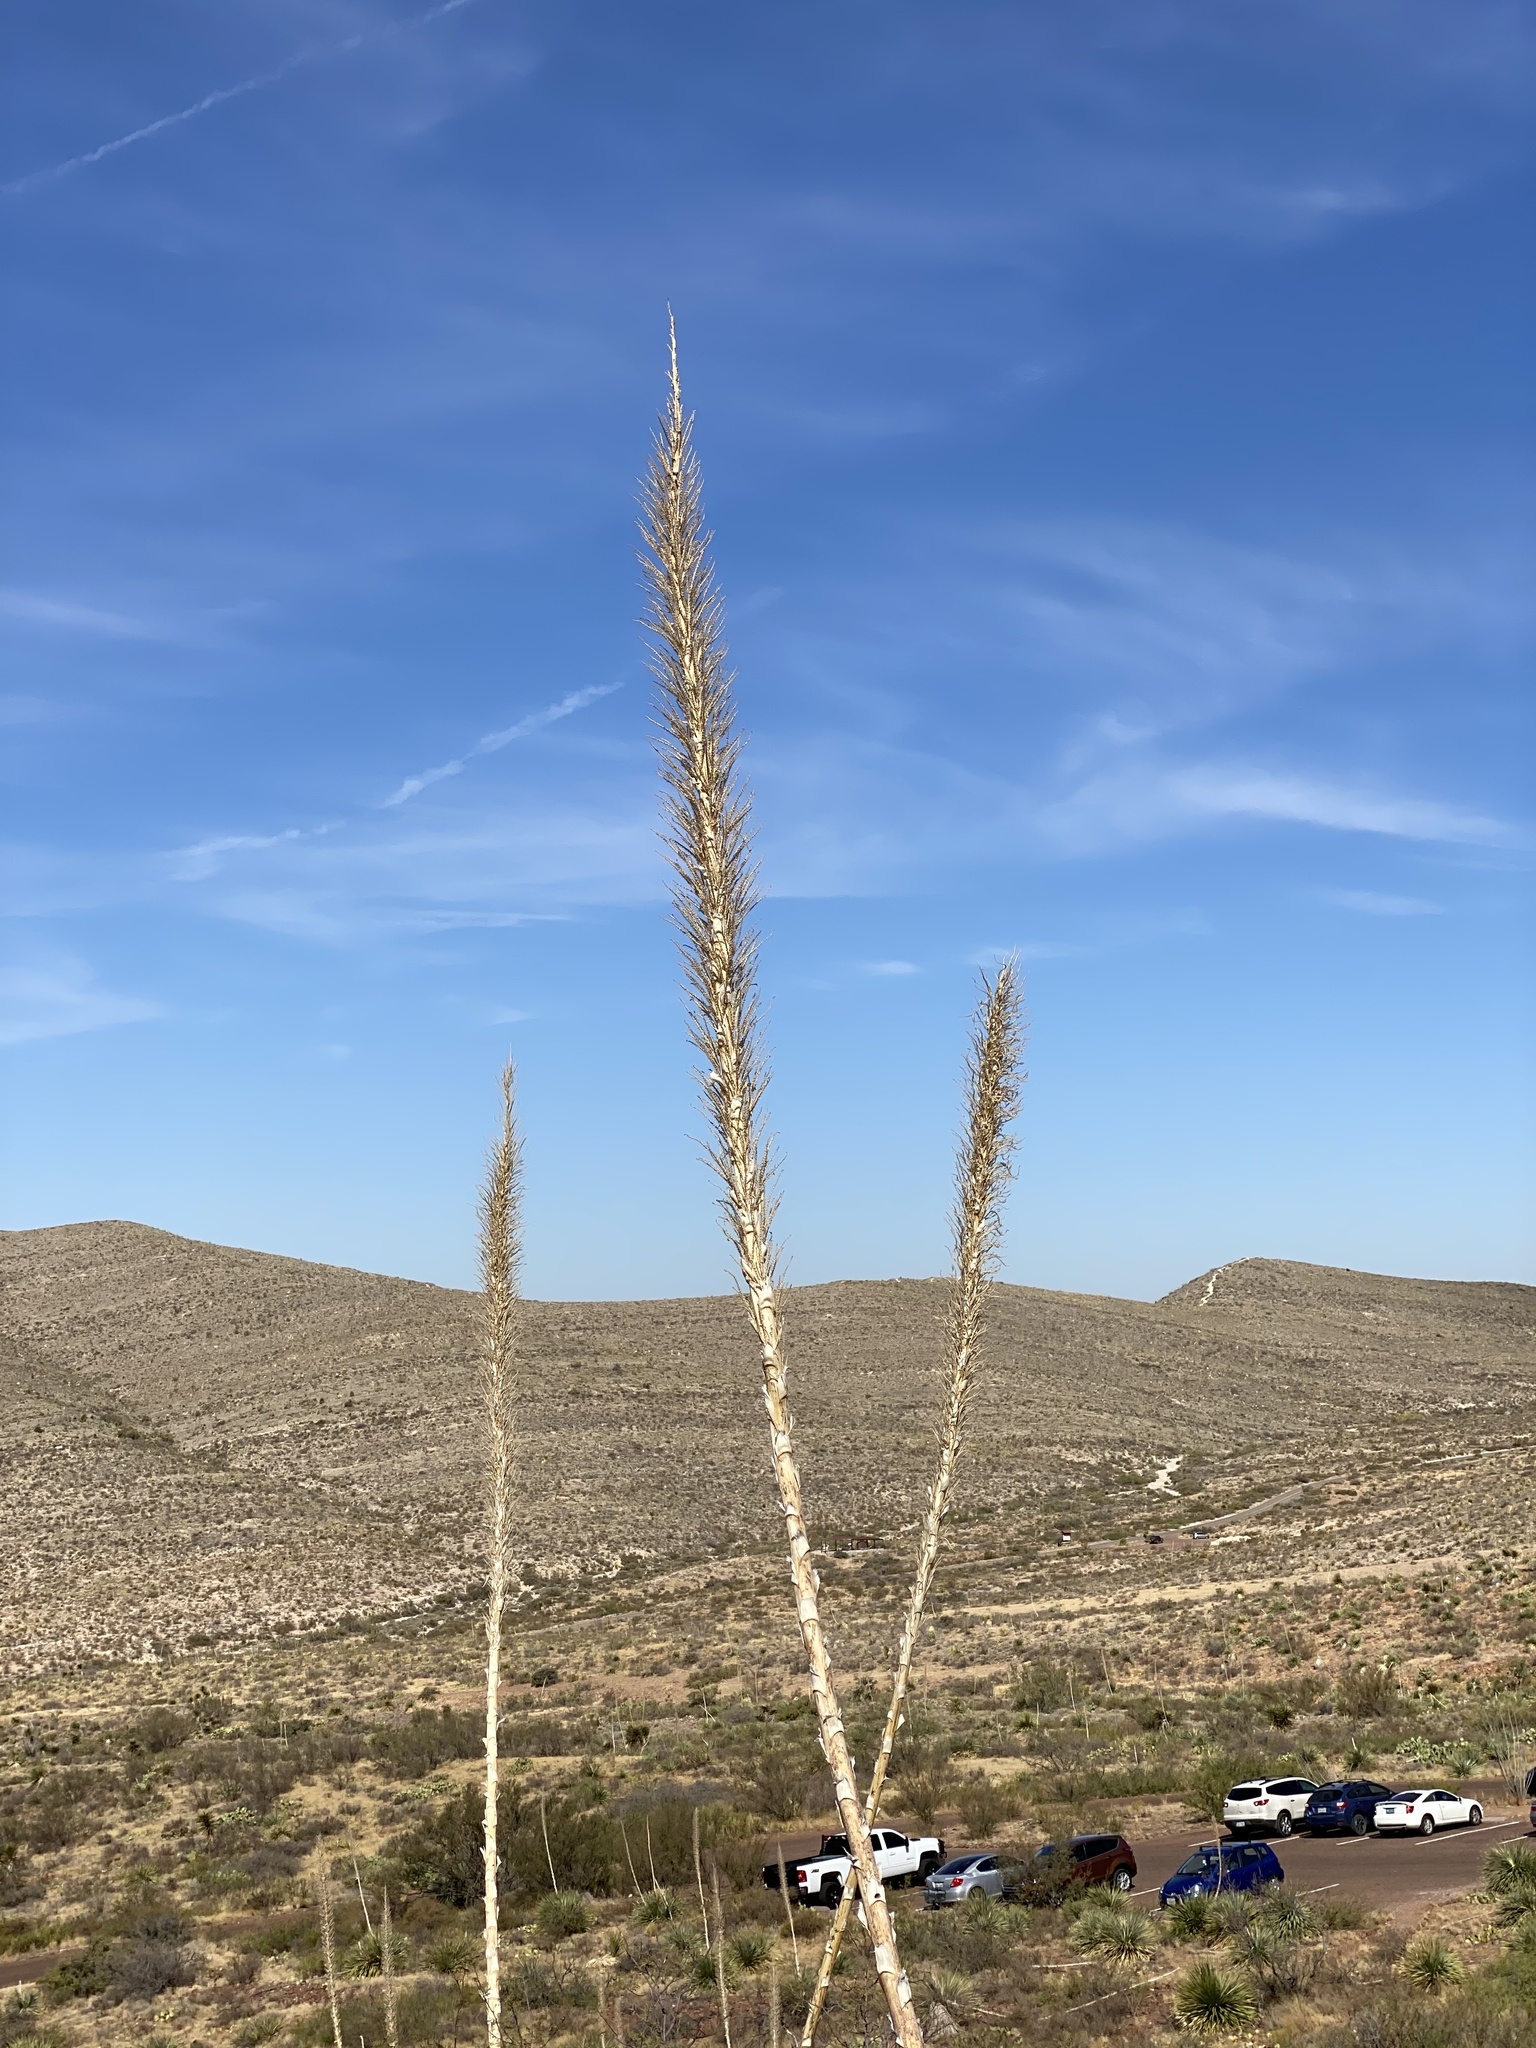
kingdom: Plantae
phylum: Tracheophyta
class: Liliopsida
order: Asparagales
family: Asparagaceae
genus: Dasylirion
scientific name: Dasylirion wheeleri
